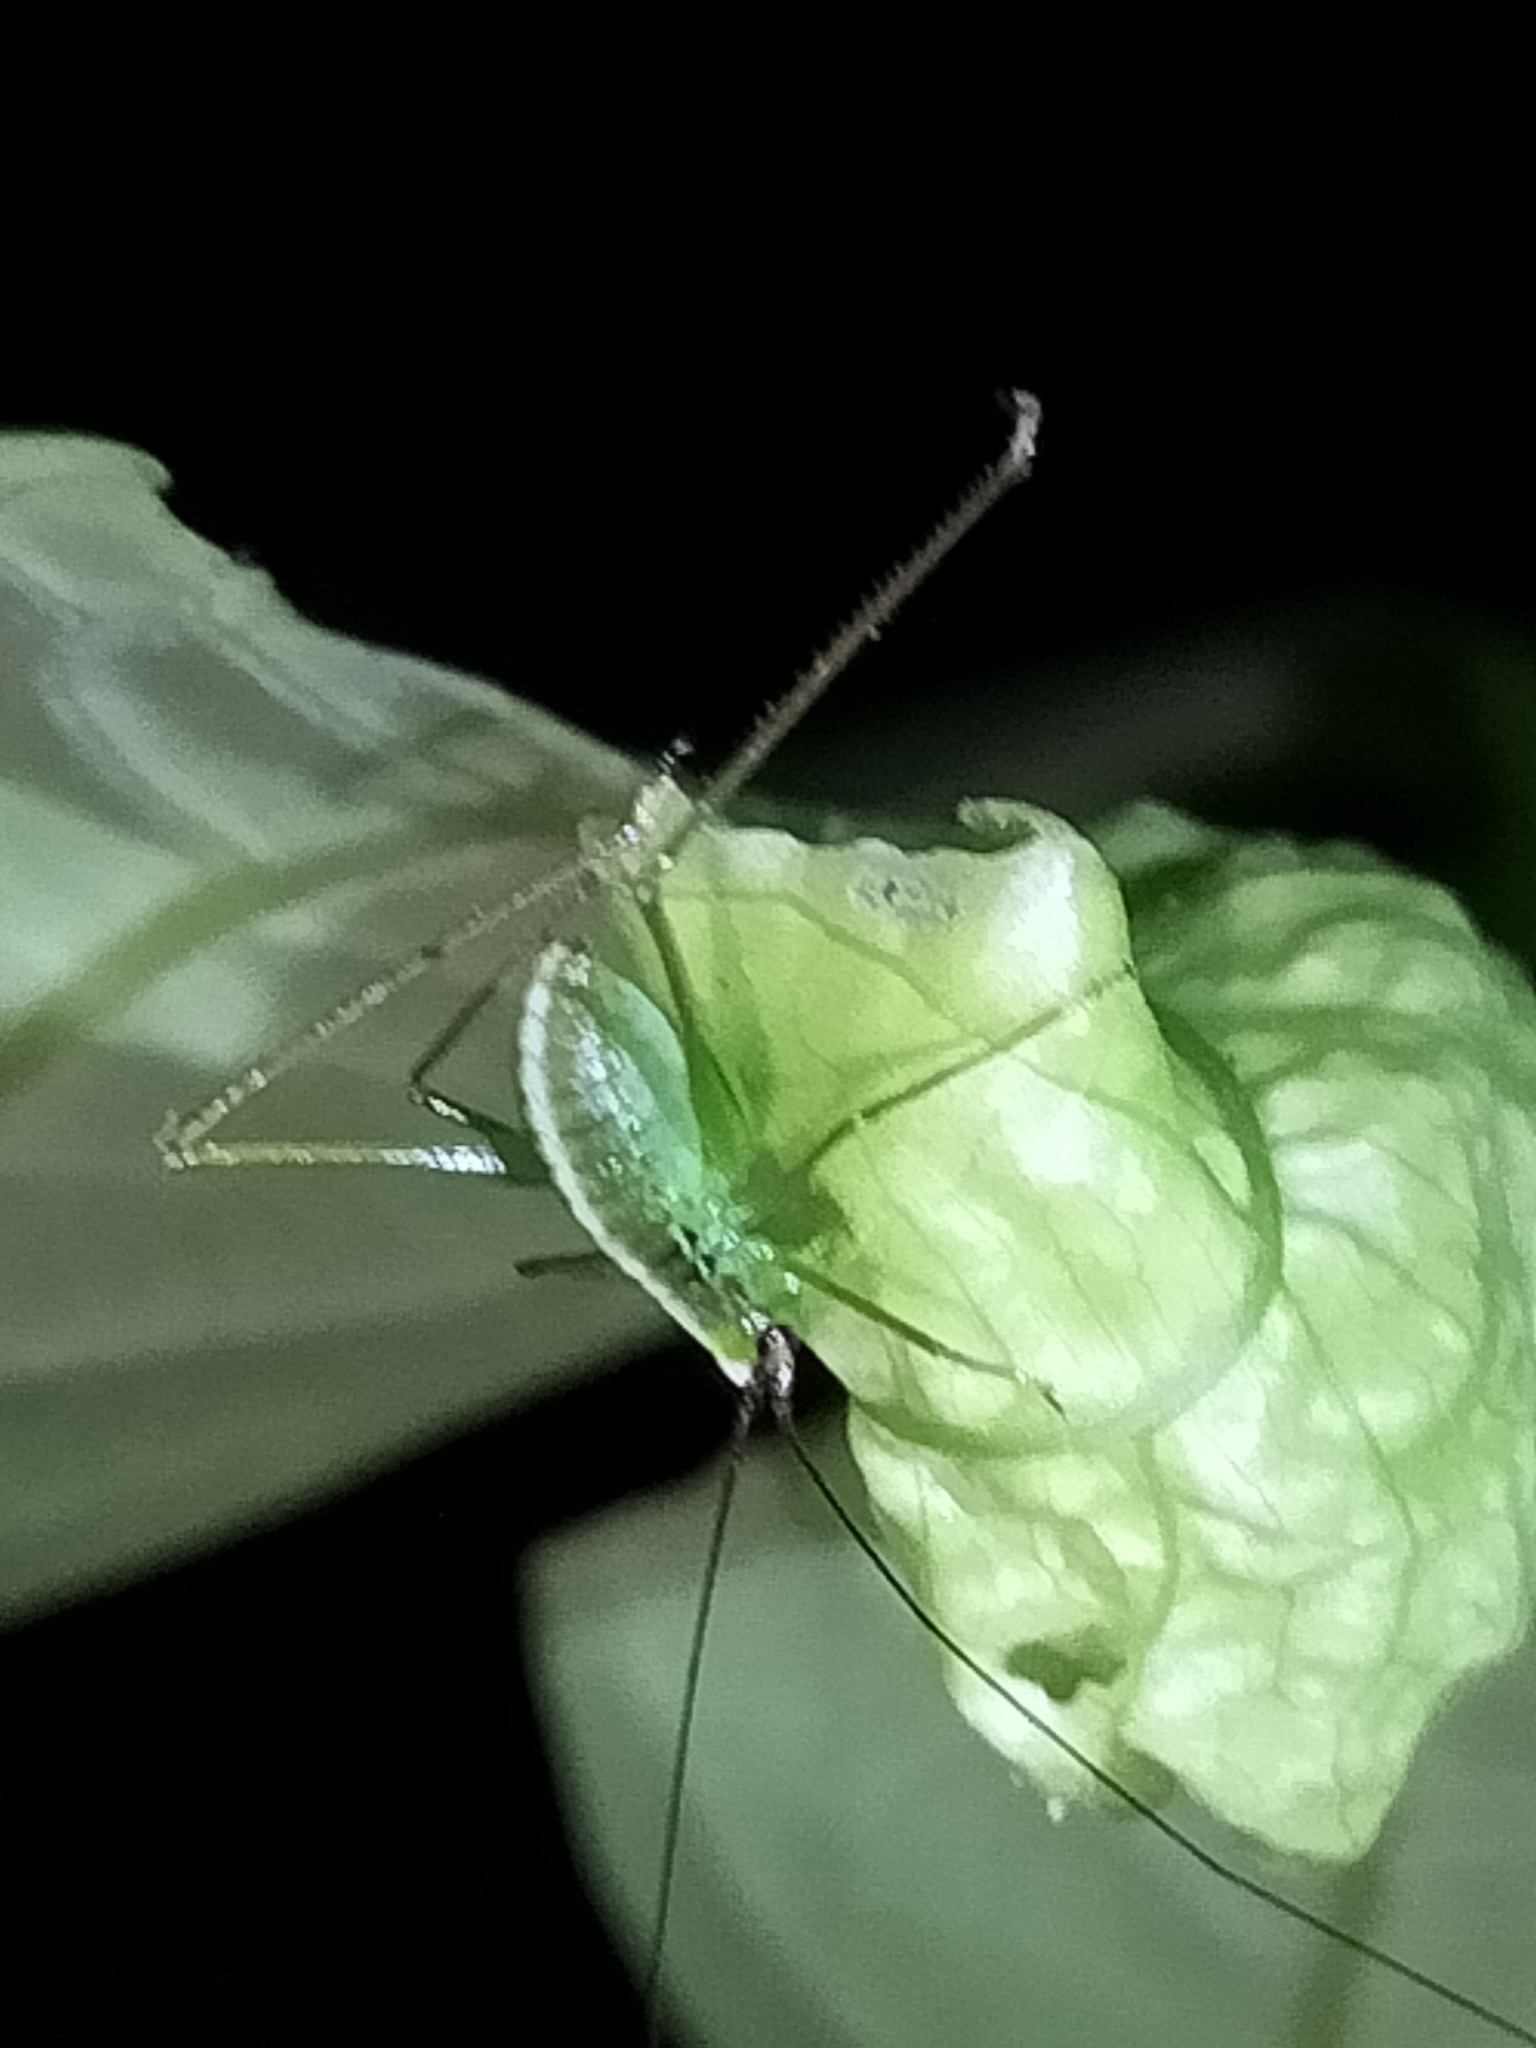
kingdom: Animalia
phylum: Arthropoda
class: Insecta
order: Orthoptera
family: Tettigoniidae
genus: Leucopodoptera
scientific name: Leucopodoptera eumundii
